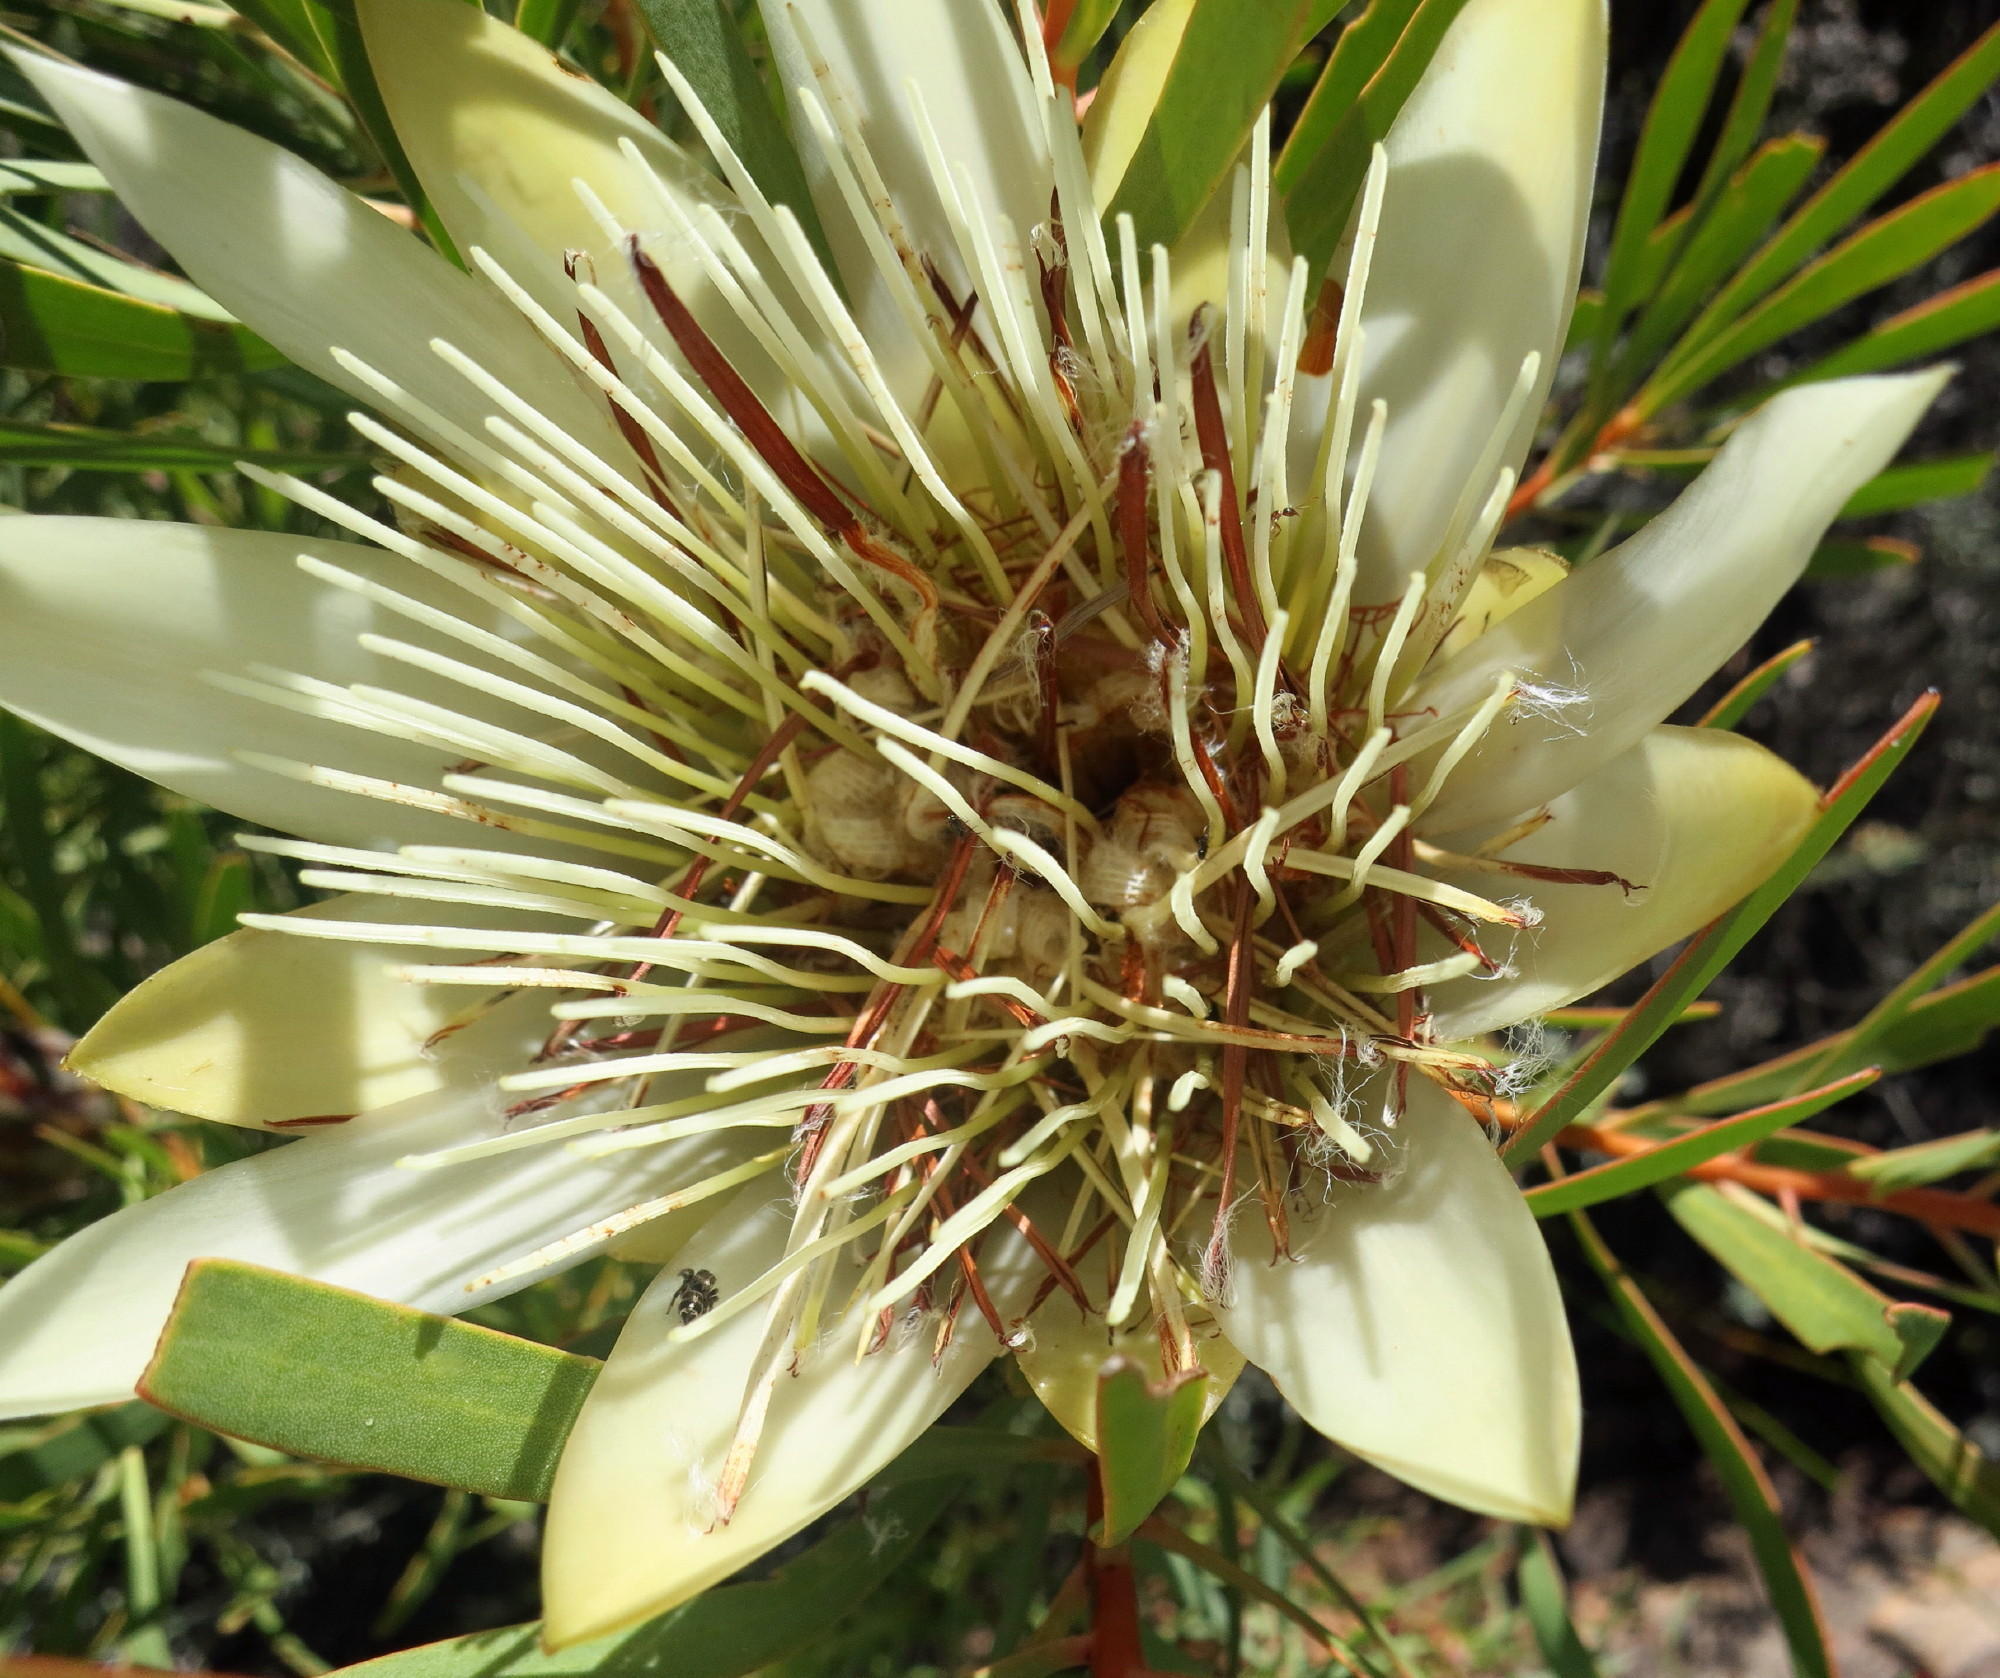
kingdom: Plantae
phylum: Tracheophyta
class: Magnoliopsida
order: Proteales
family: Proteaceae
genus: Protea
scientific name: Protea repens
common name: Sugarbush
